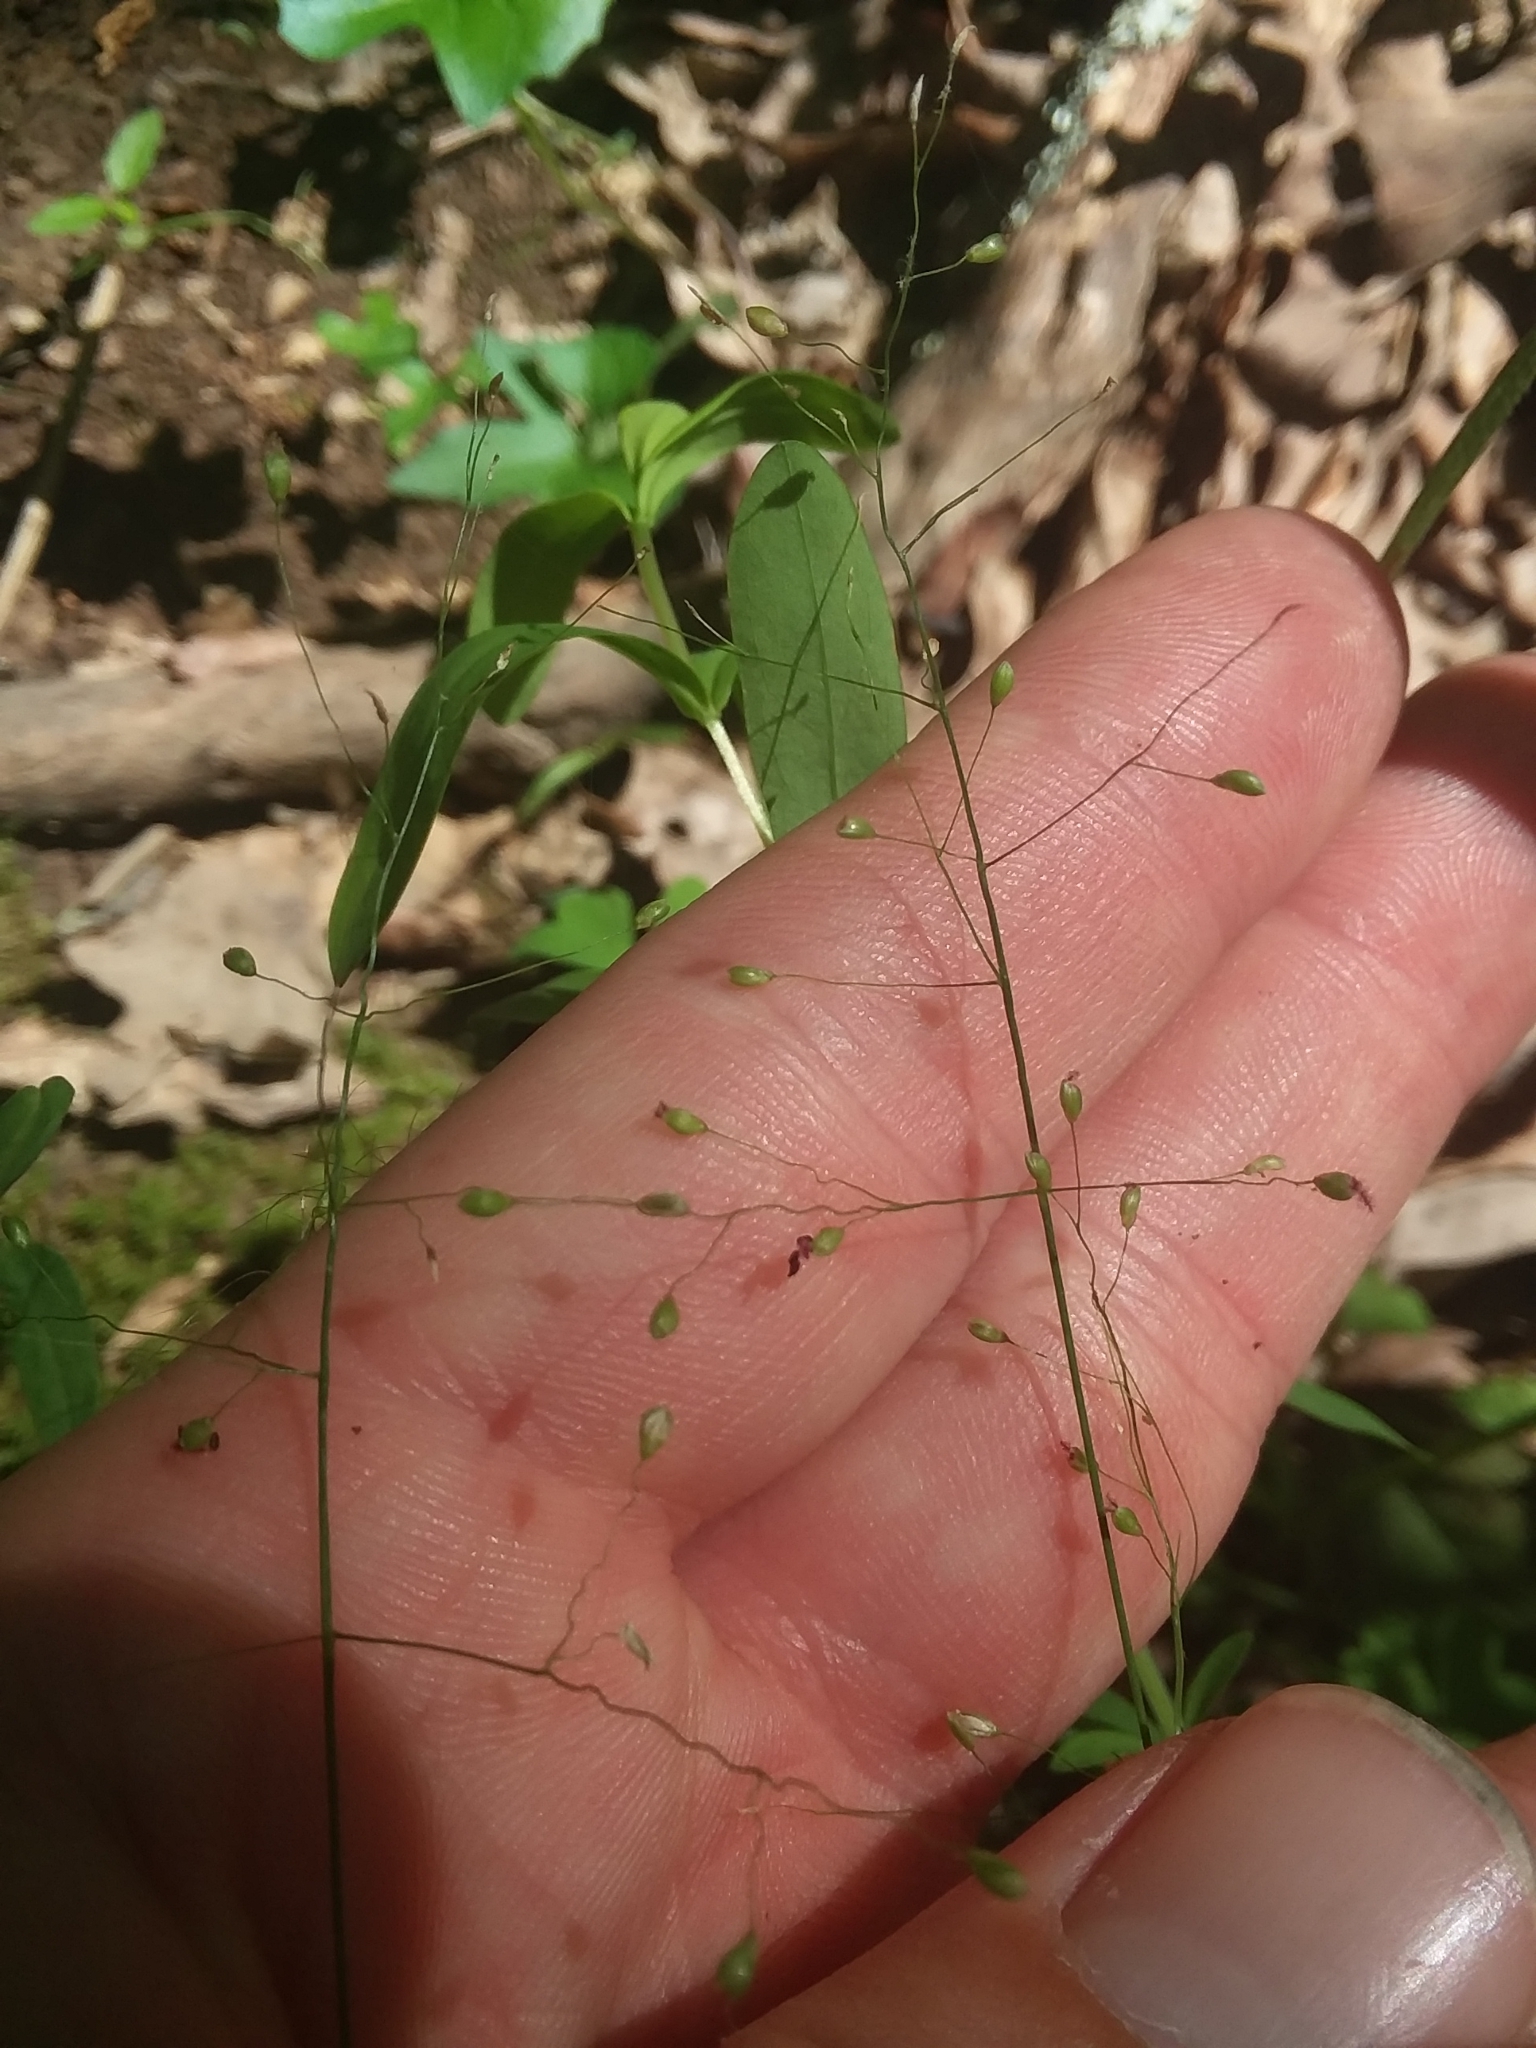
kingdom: Plantae
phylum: Tracheophyta
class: Liliopsida
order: Poales
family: Poaceae
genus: Dichanthelium
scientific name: Dichanthelium dichotomum
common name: Cypress panicgrass
